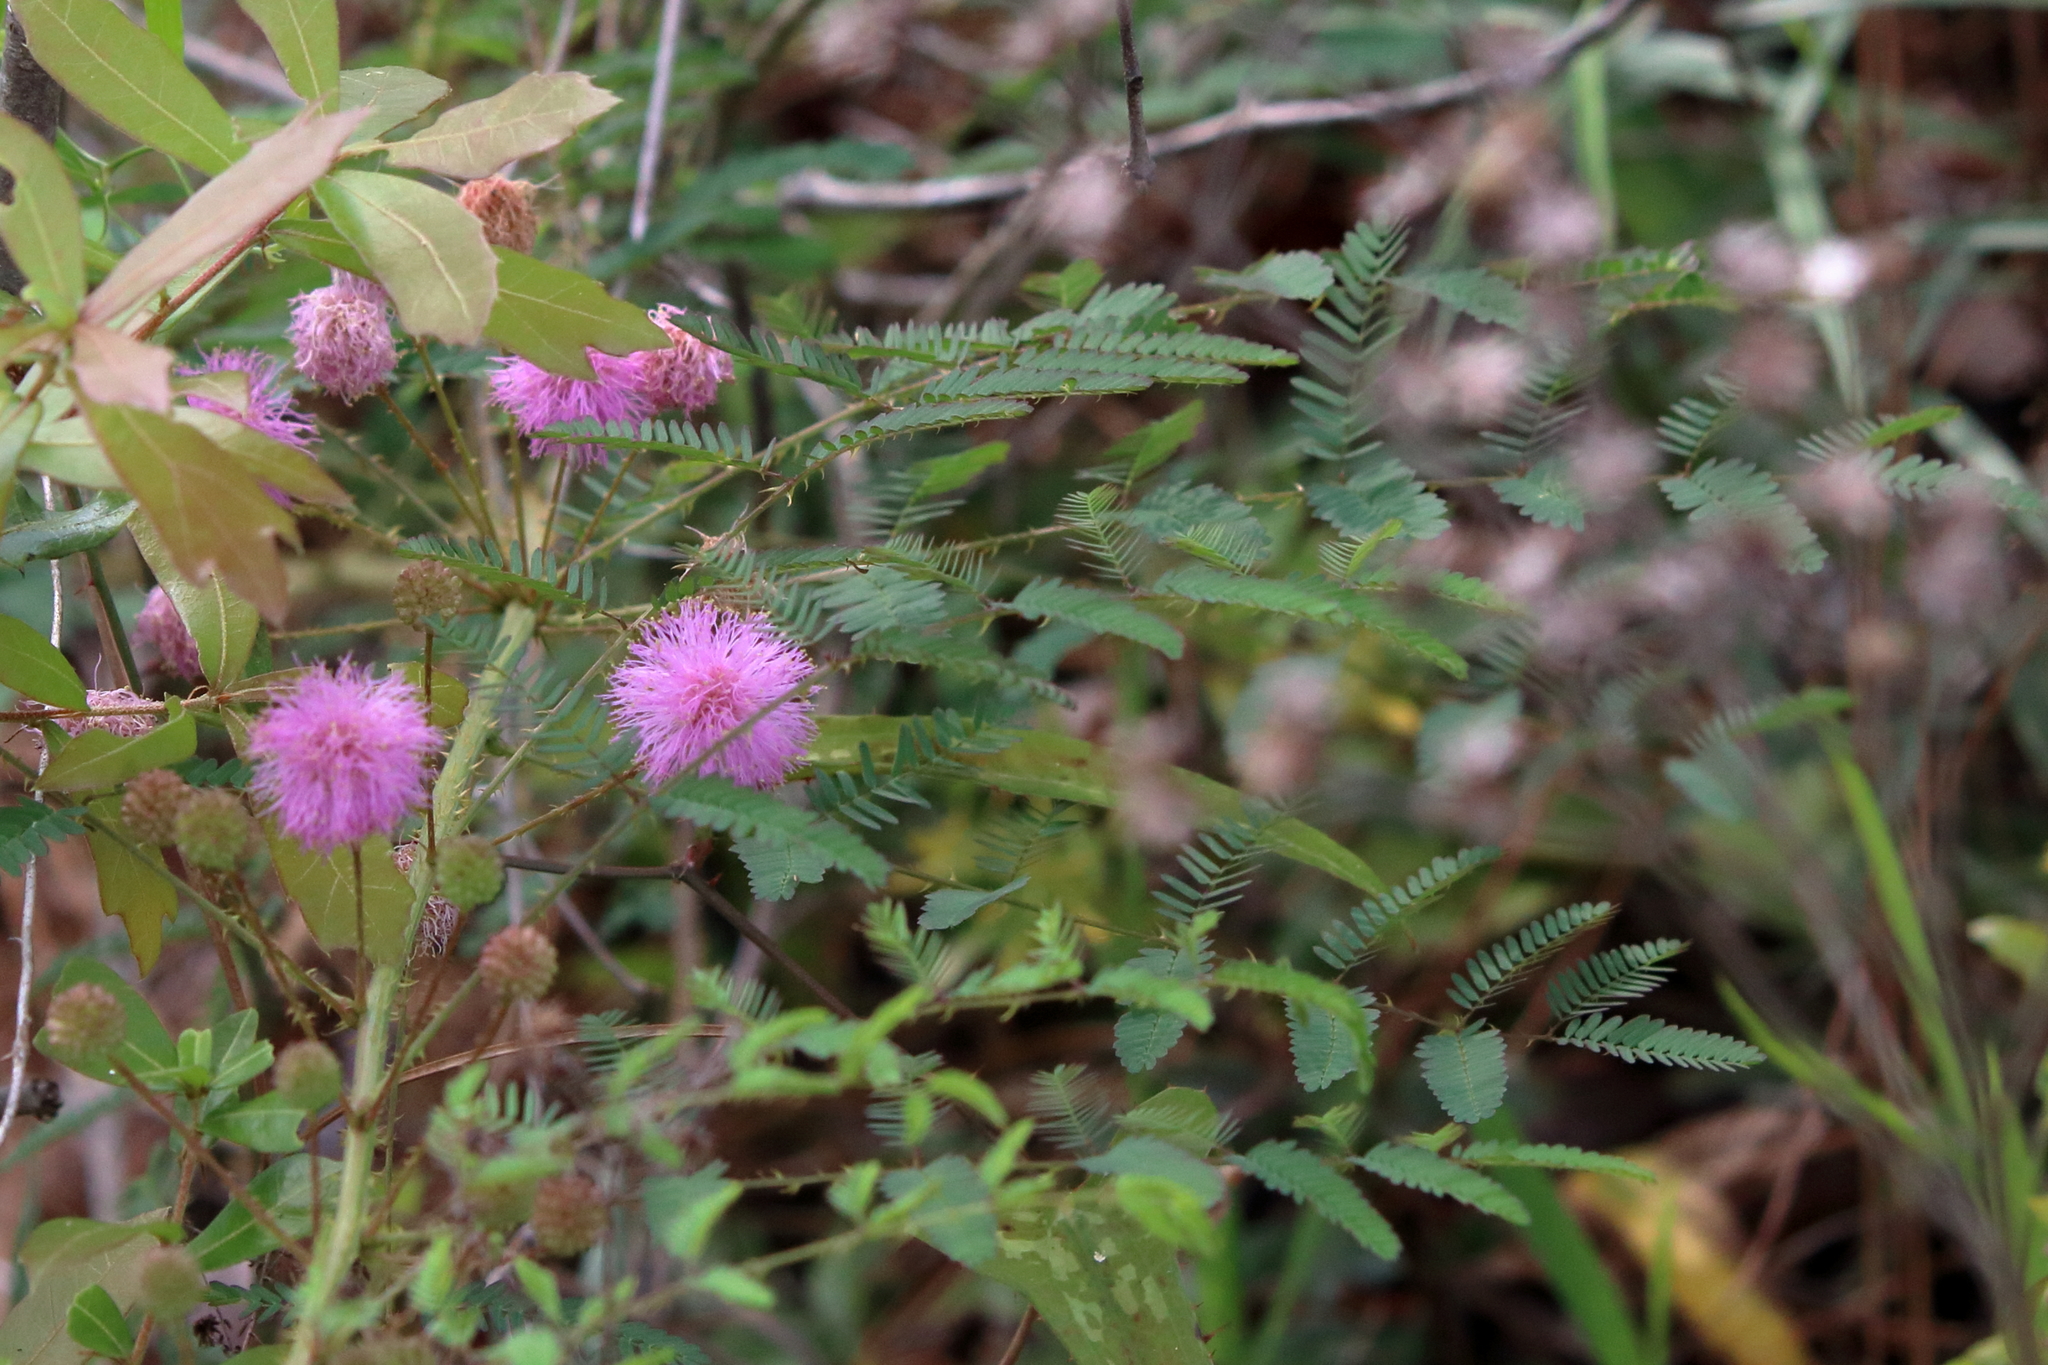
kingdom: Plantae
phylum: Tracheophyta
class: Magnoliopsida
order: Fabales
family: Fabaceae
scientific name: Fabaceae
